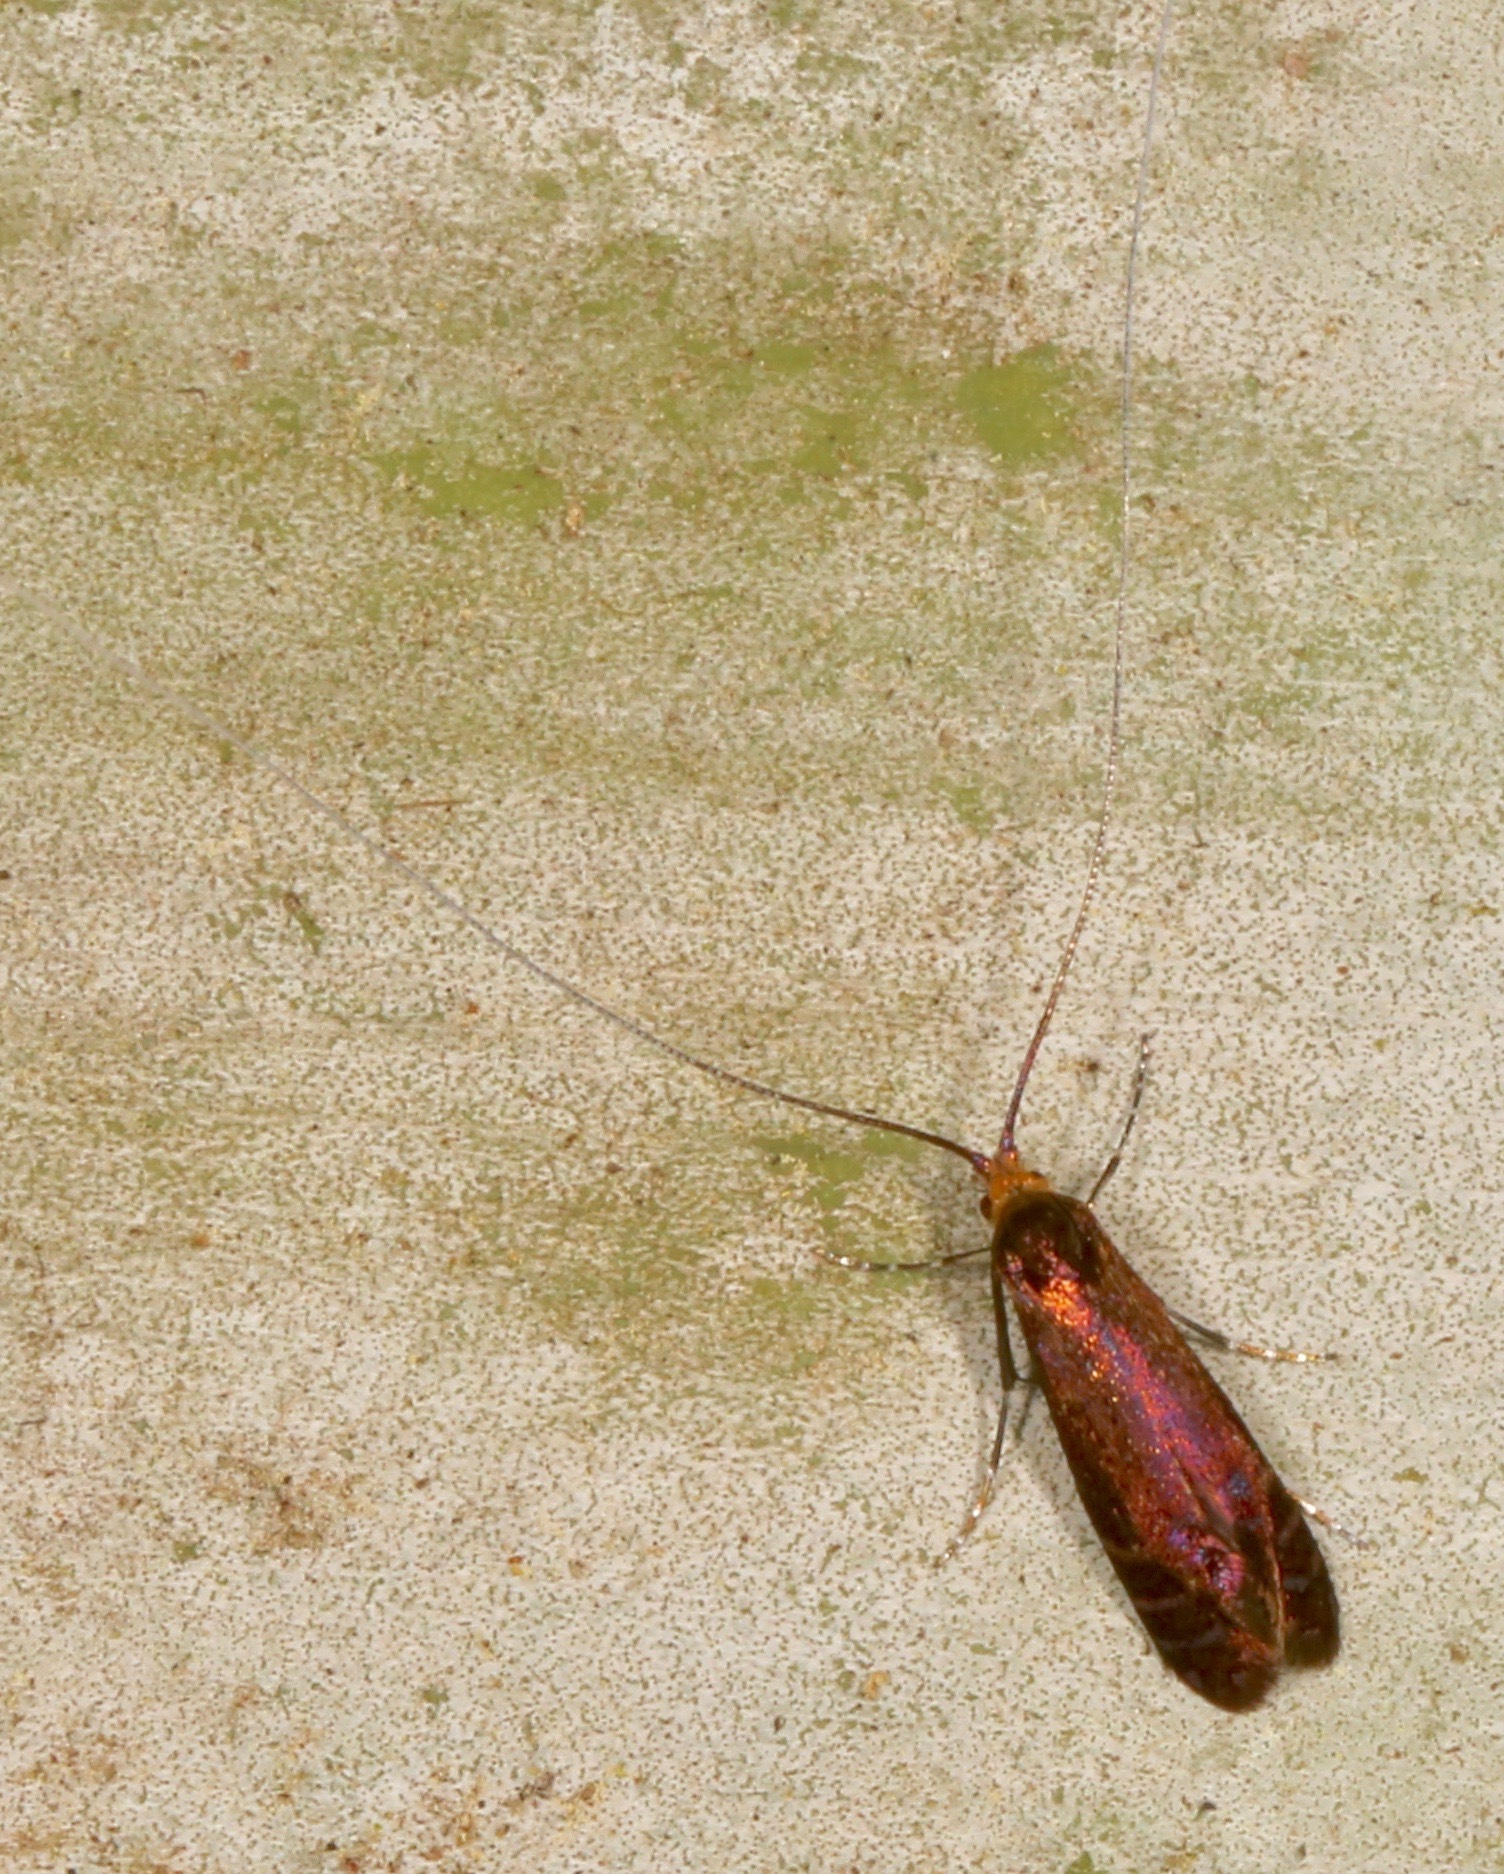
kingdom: Animalia
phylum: Arthropoda
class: Insecta
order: Lepidoptera
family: Adelidae
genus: Adela
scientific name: Adela caeruleella
